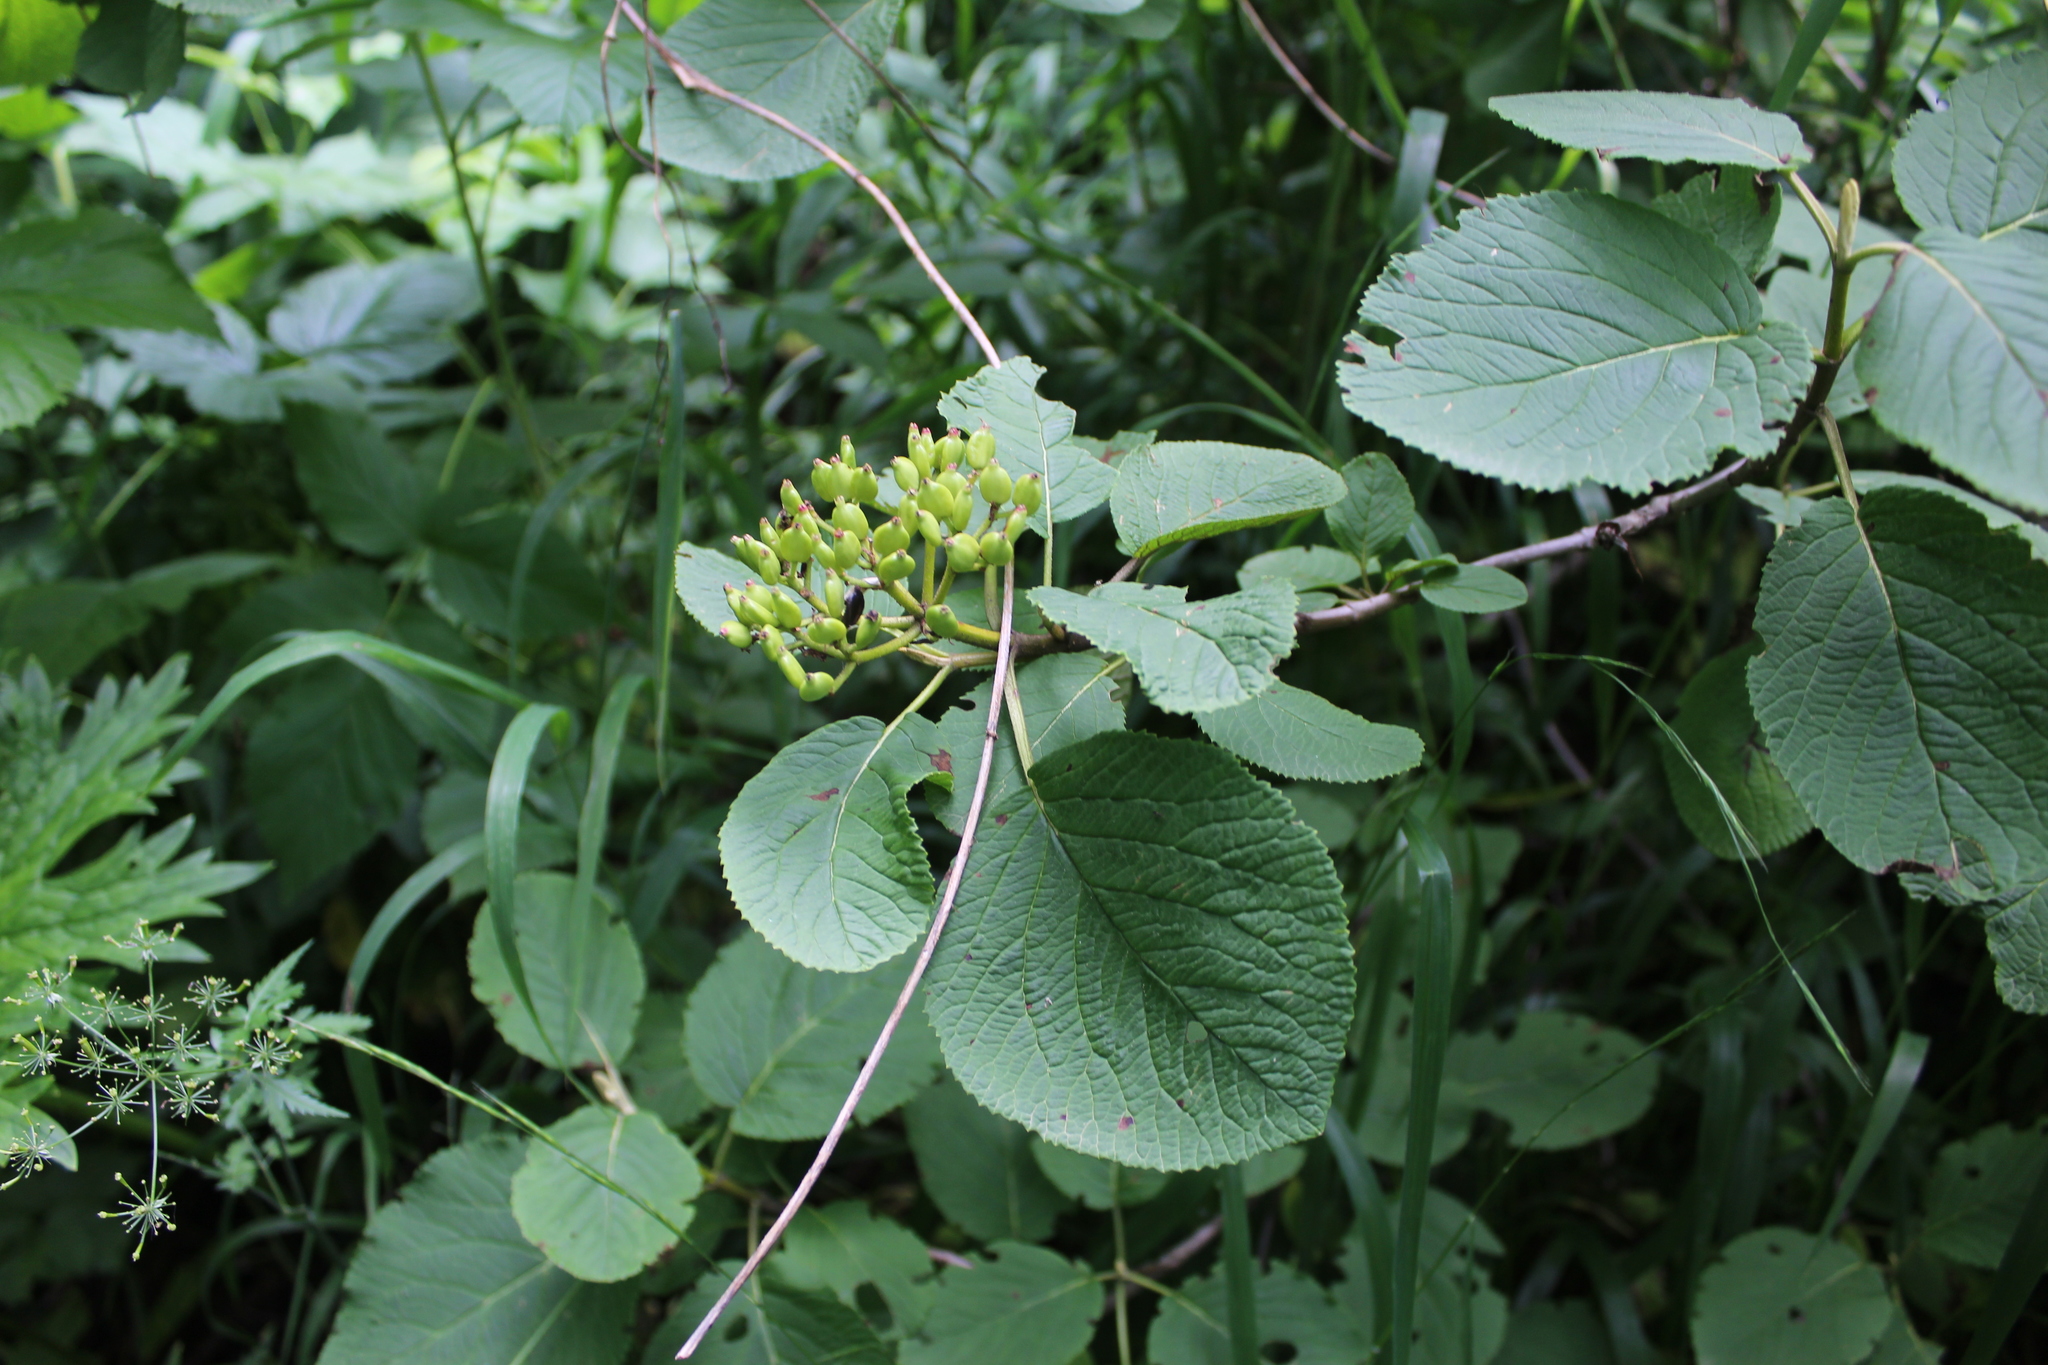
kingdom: Plantae
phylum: Tracheophyta
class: Magnoliopsida
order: Dipsacales
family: Viburnaceae
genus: Viburnum
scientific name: Viburnum lantana
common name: Wayfaring tree
